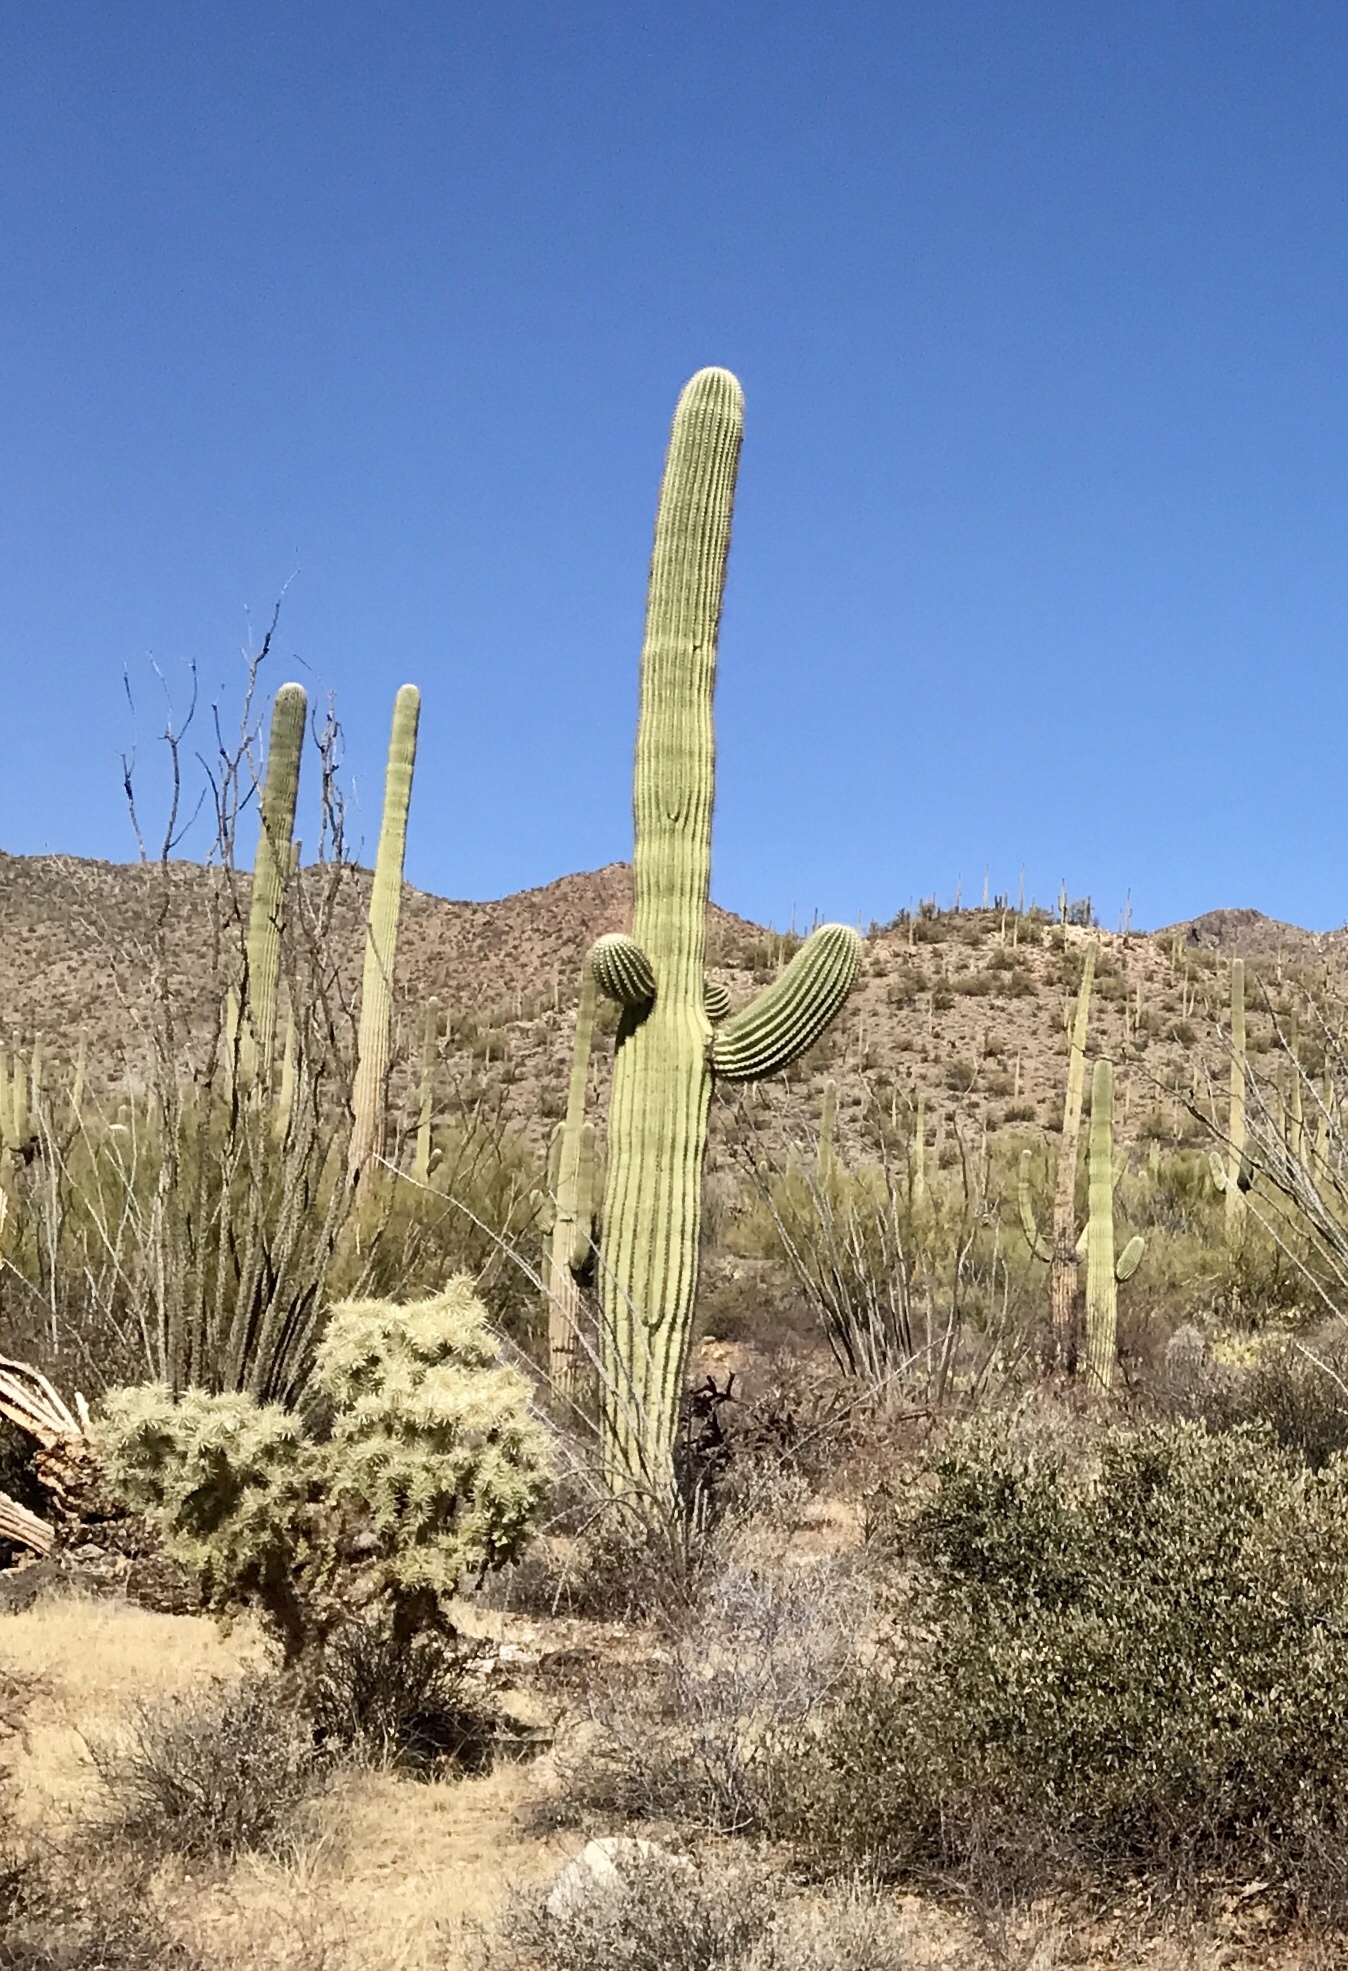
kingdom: Plantae
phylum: Tracheophyta
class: Magnoliopsida
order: Caryophyllales
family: Cactaceae
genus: Carnegiea
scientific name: Carnegiea gigantea
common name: Saguaro
